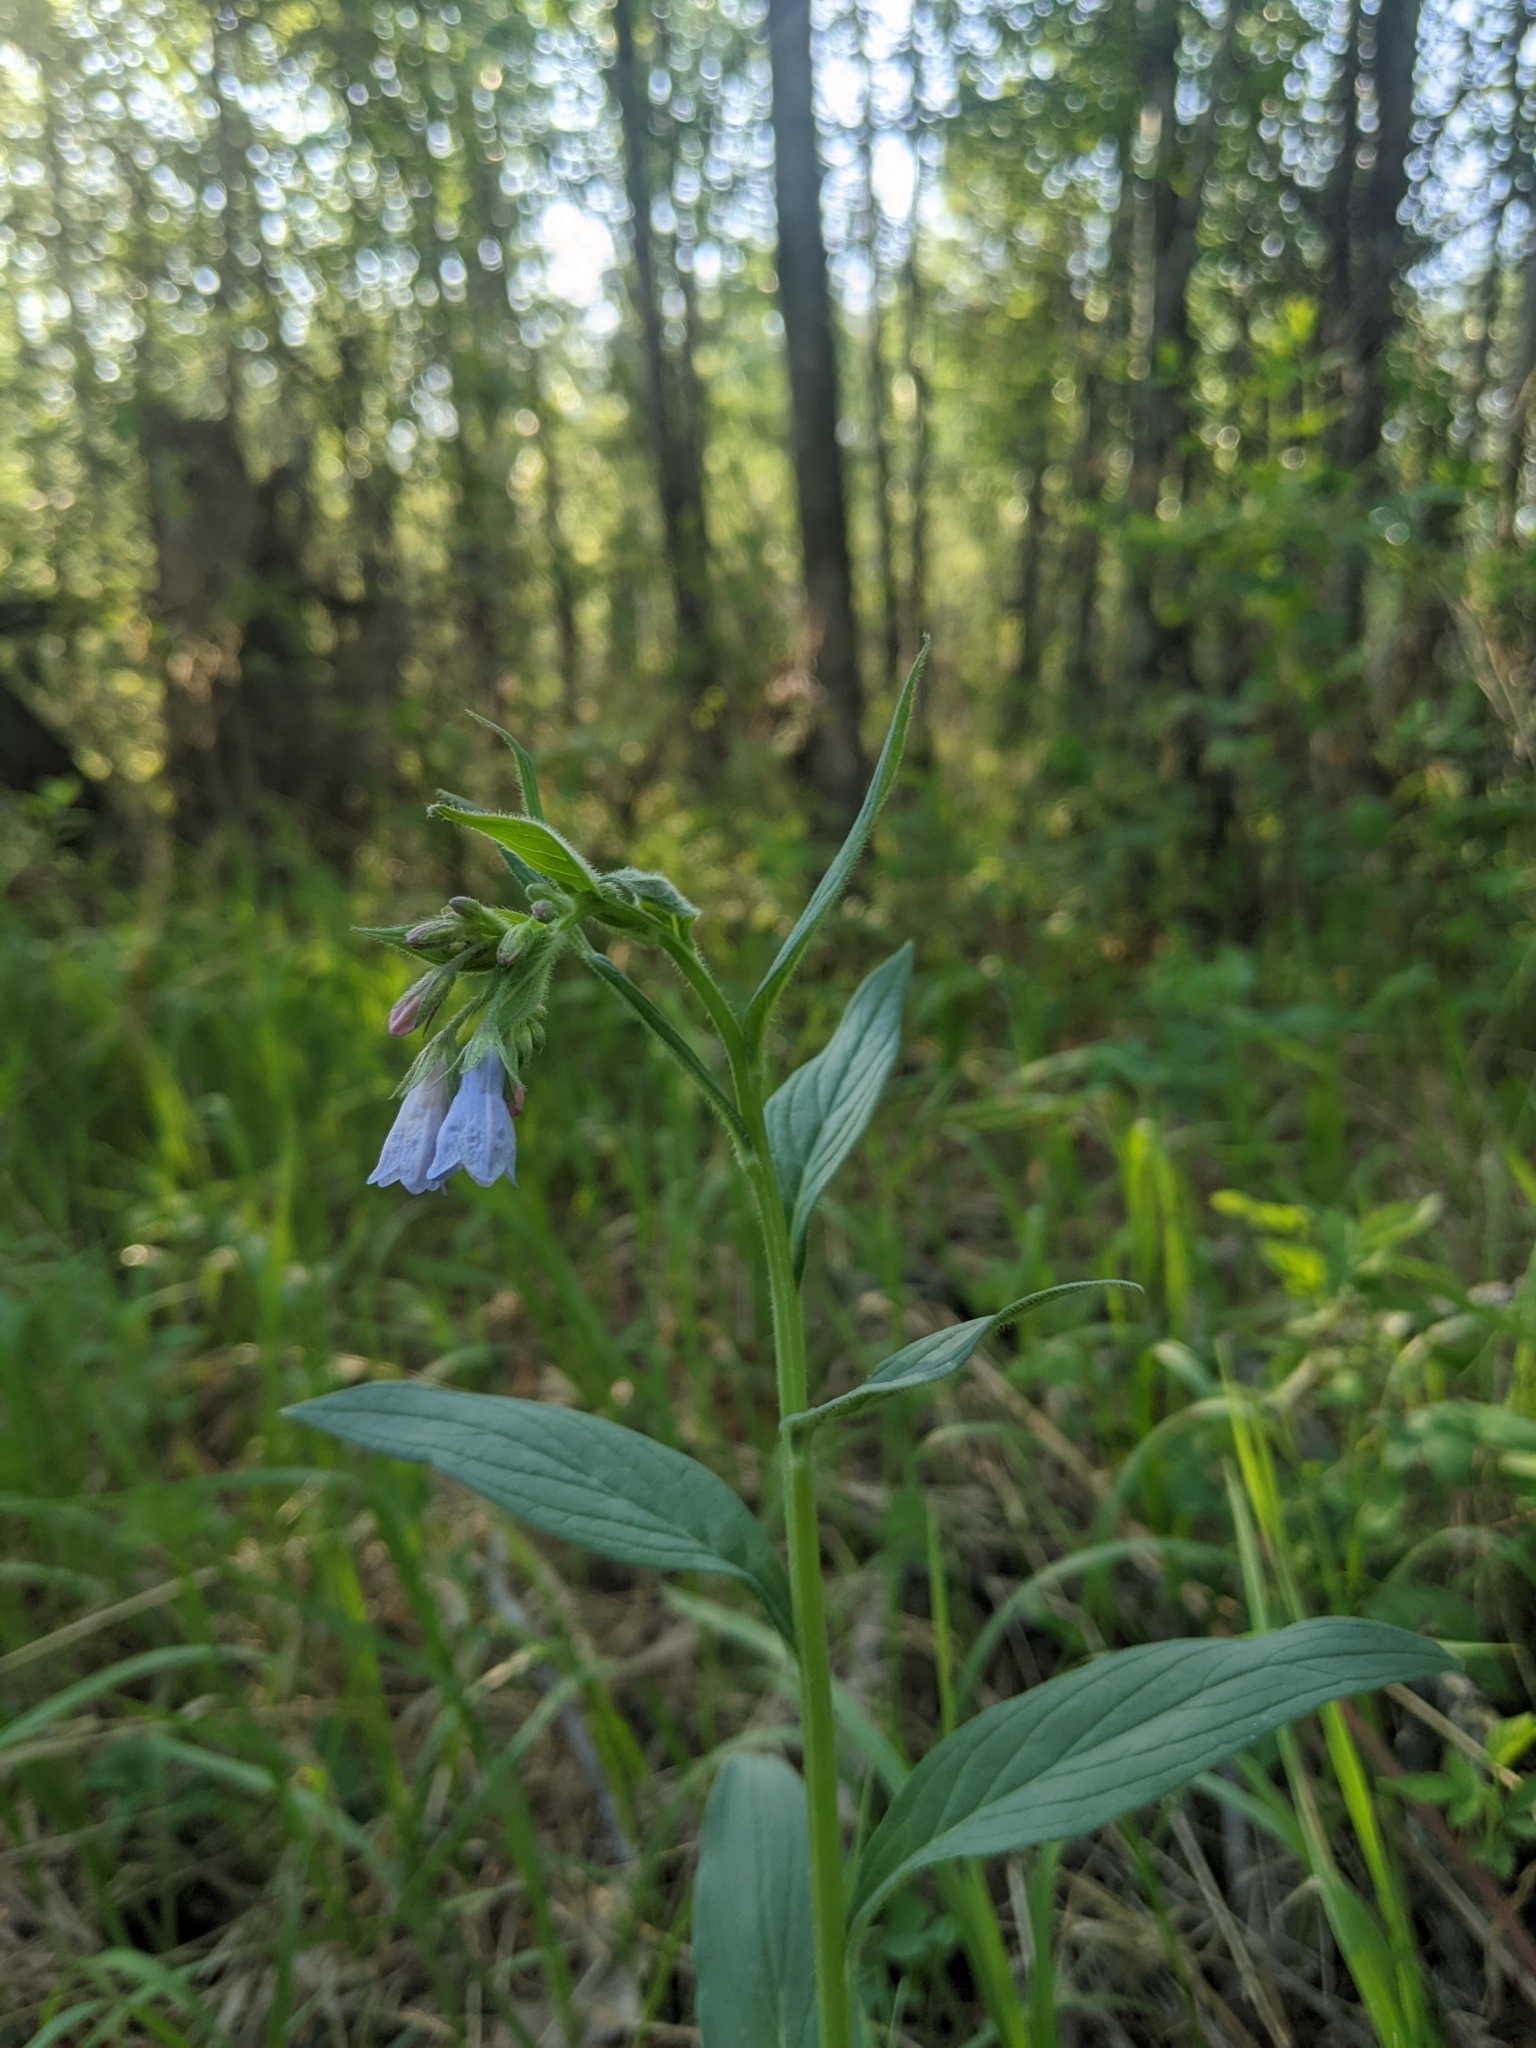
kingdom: Plantae
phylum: Tracheophyta
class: Magnoliopsida
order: Boraginales
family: Boraginaceae
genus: Mertensia
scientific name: Mertensia paniculata
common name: Panicled bluebells
